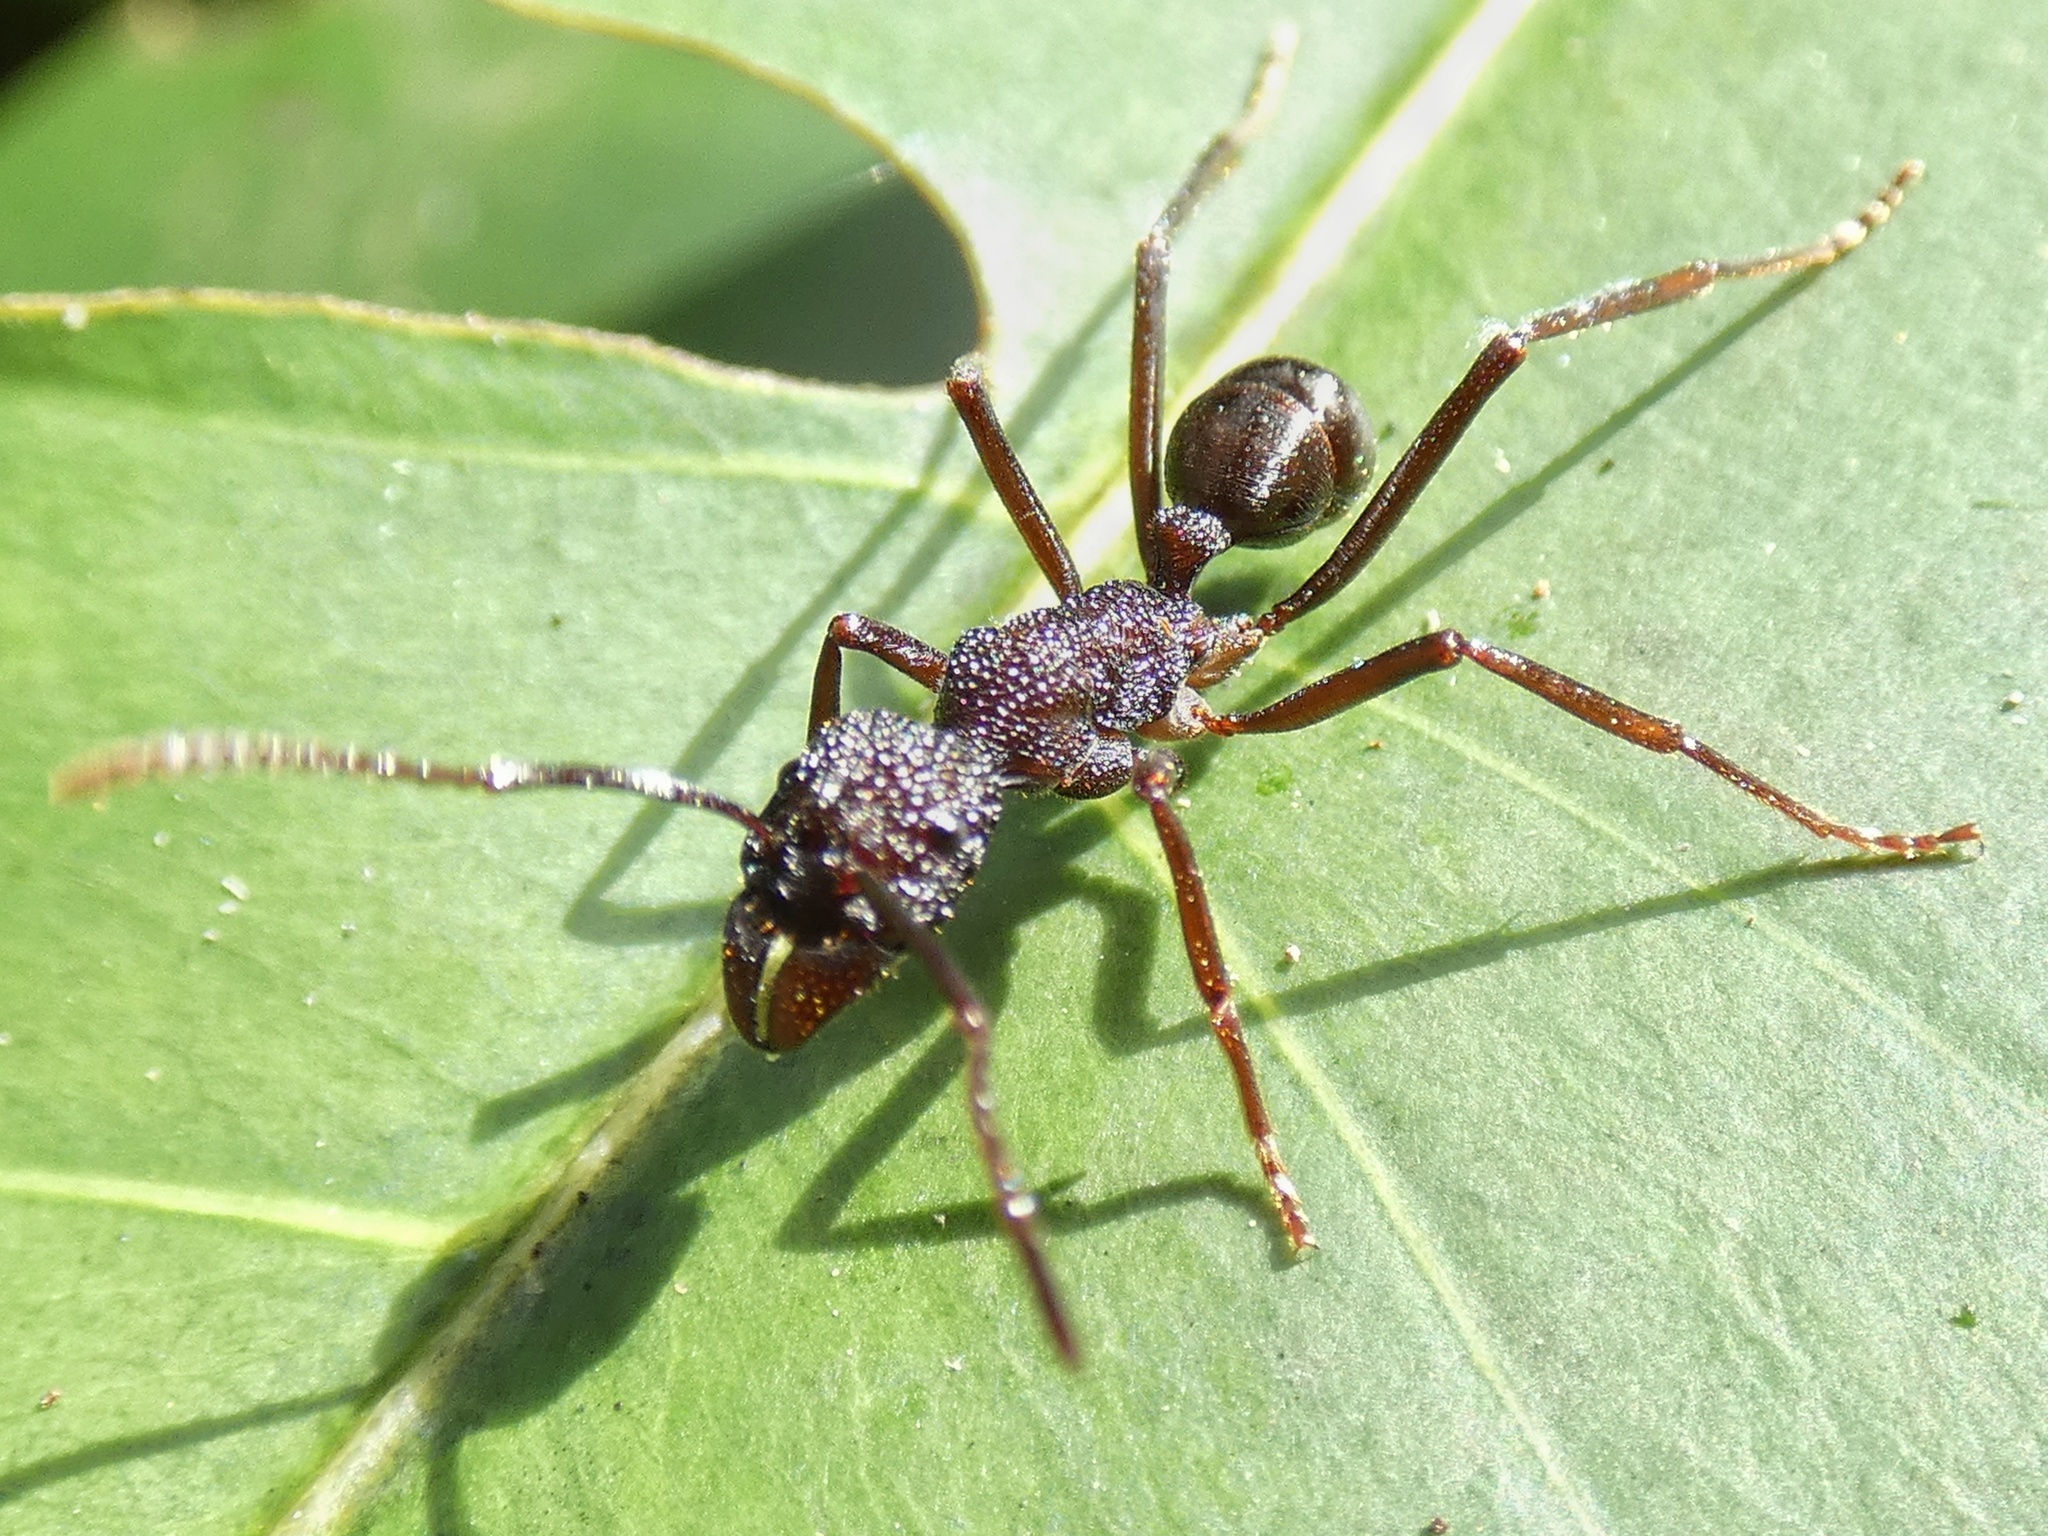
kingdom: Animalia
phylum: Arthropoda
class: Insecta
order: Hymenoptera
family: Formicidae
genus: Rhytidoponera
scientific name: Rhytidoponera spoliata
